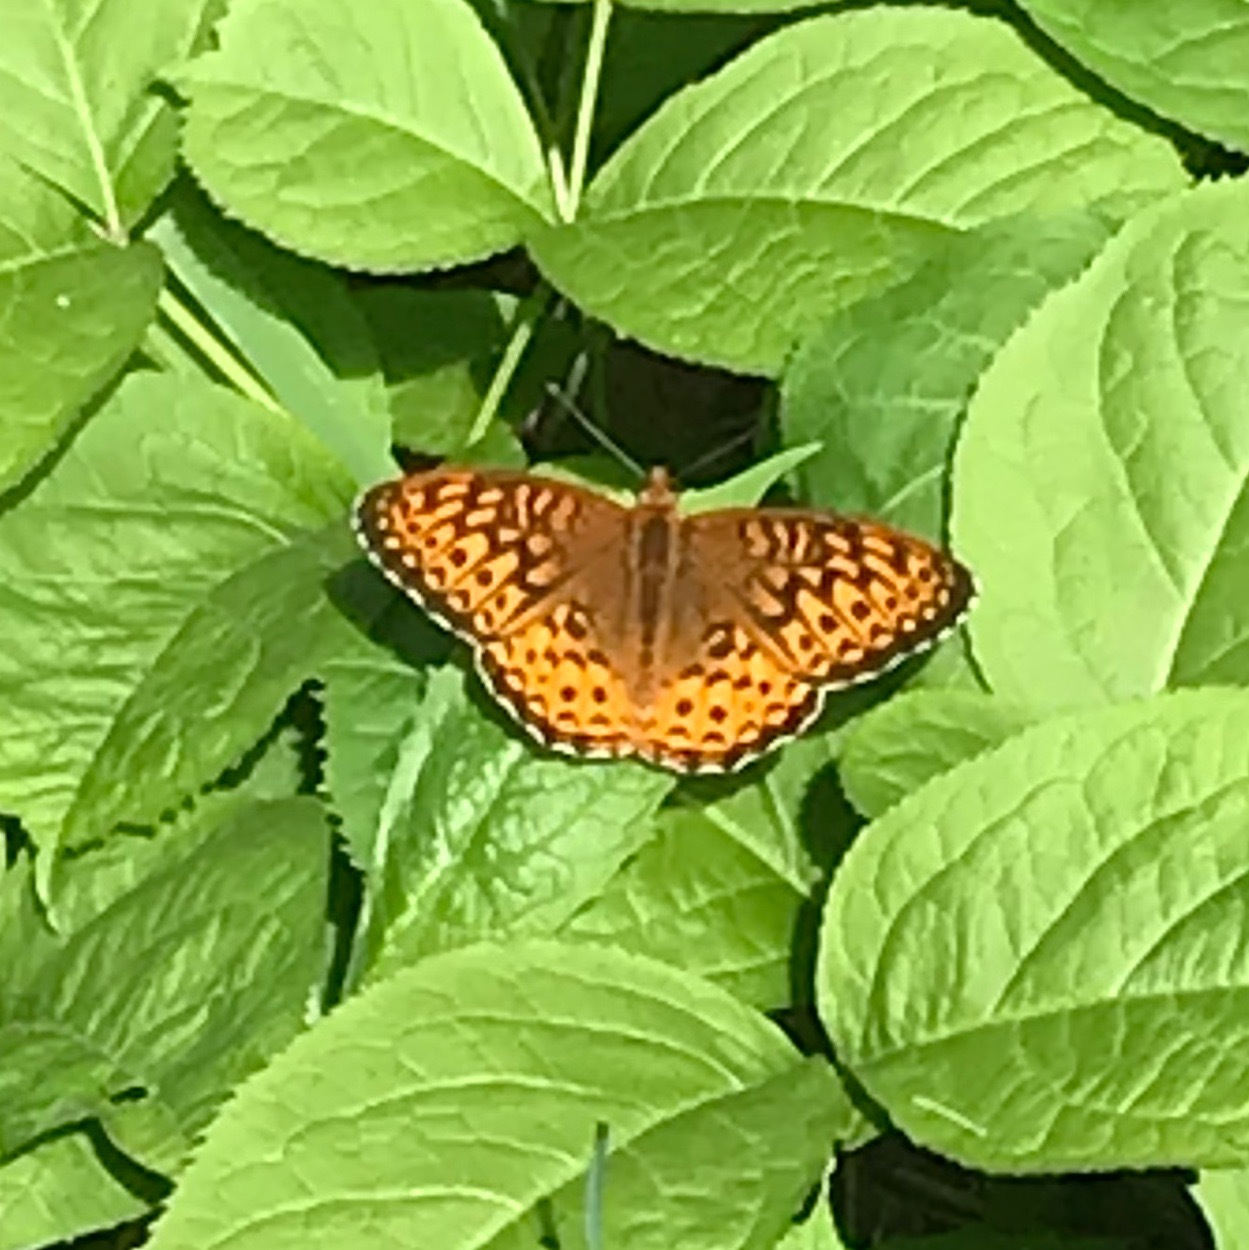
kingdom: Animalia
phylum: Arthropoda
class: Insecta
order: Lepidoptera
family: Nymphalidae
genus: Speyeria
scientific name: Speyeria atlantis
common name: Atlantis fritillary
